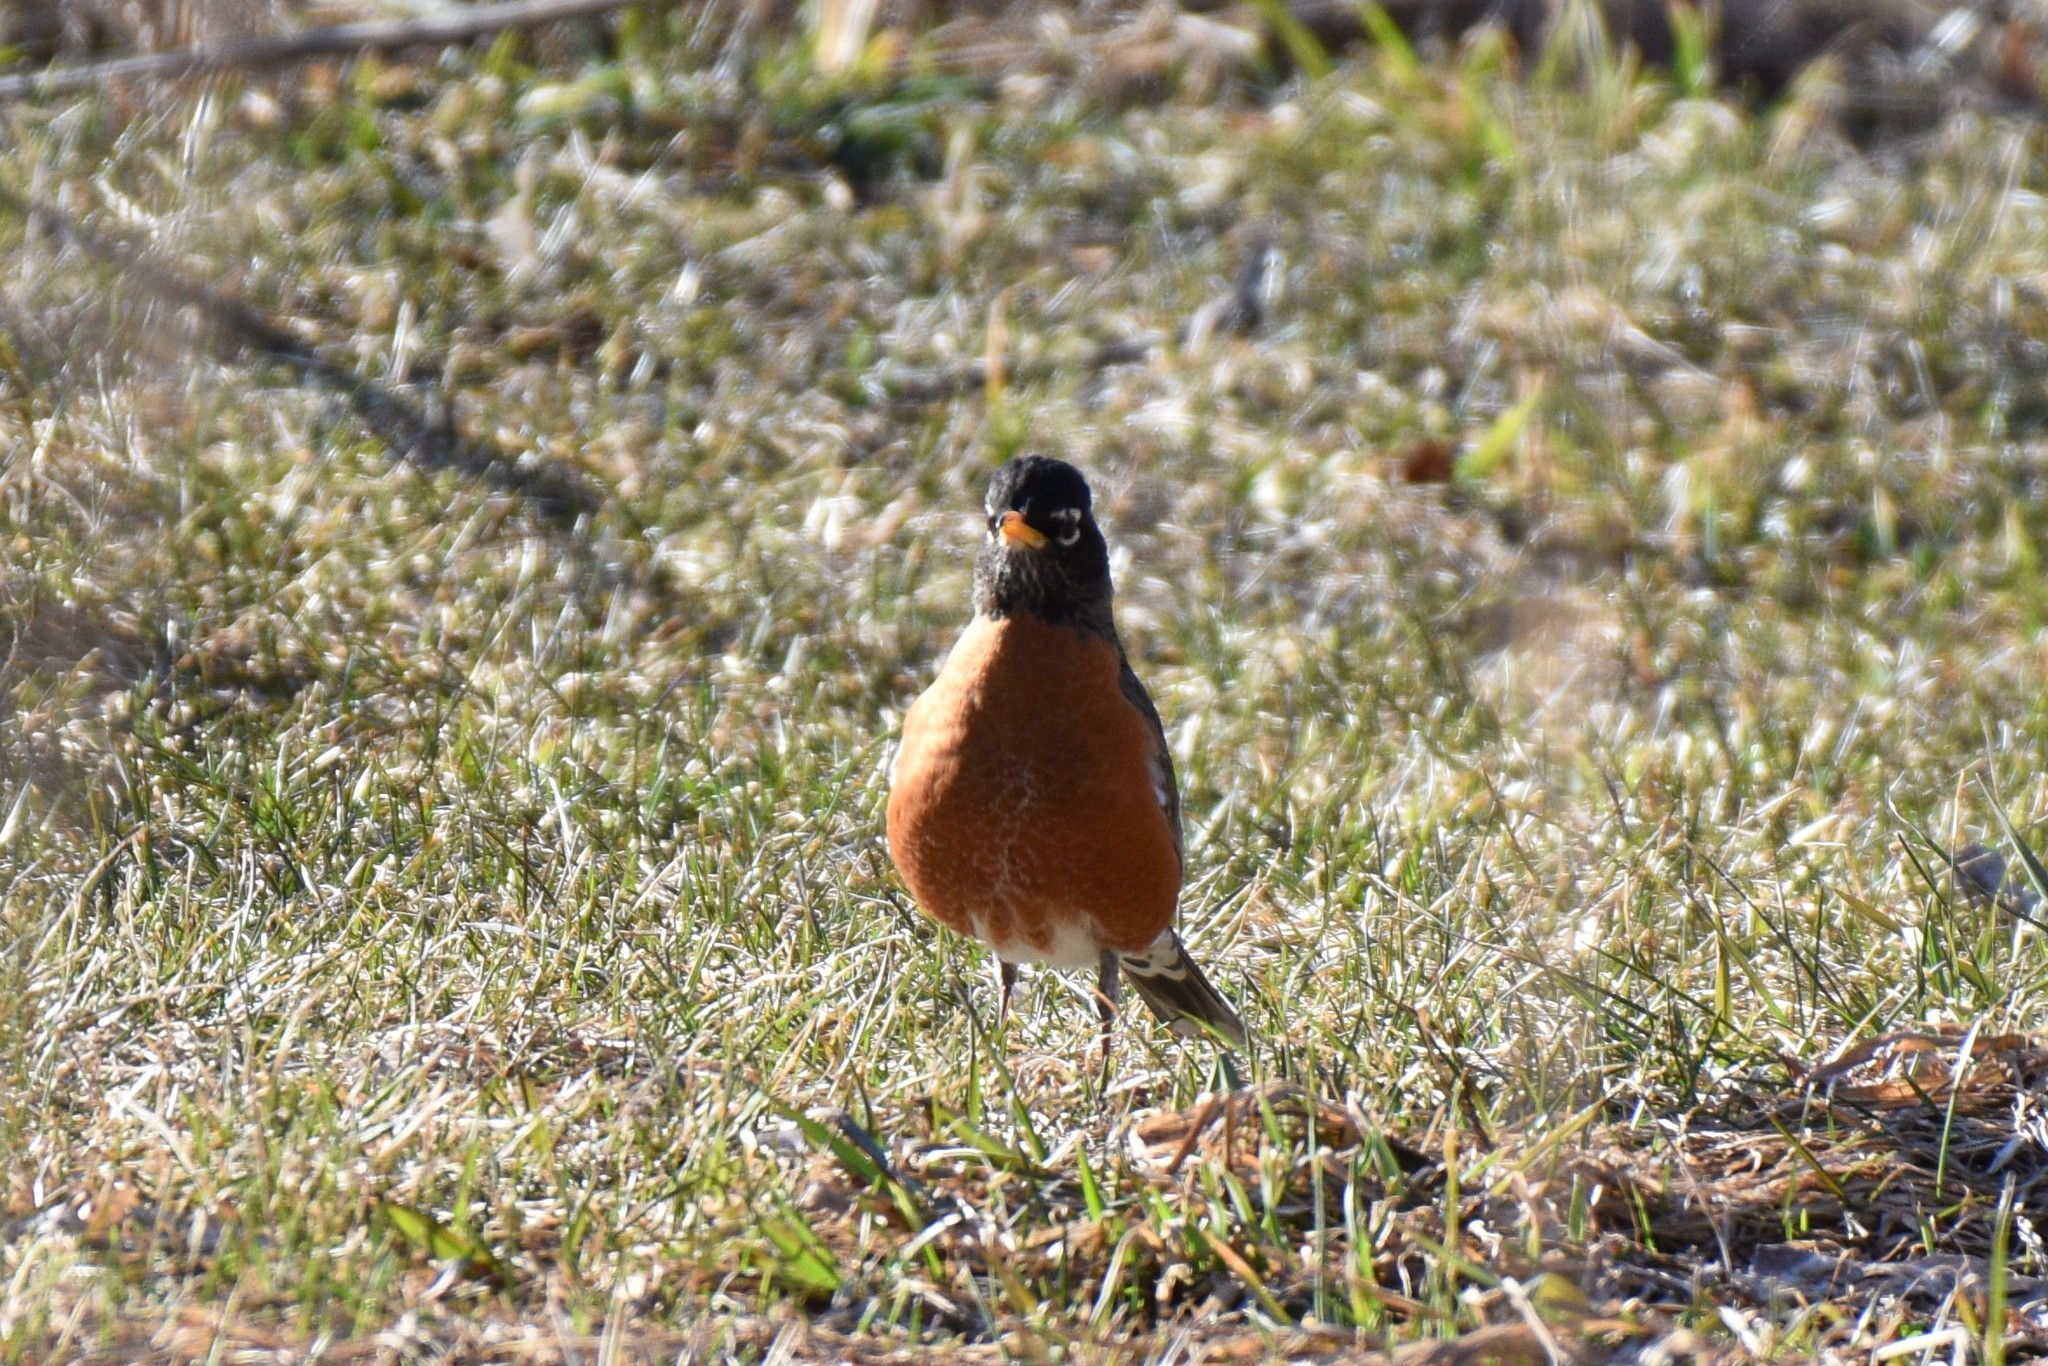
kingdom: Animalia
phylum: Chordata
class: Aves
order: Passeriformes
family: Turdidae
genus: Turdus
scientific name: Turdus migratorius
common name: American robin
